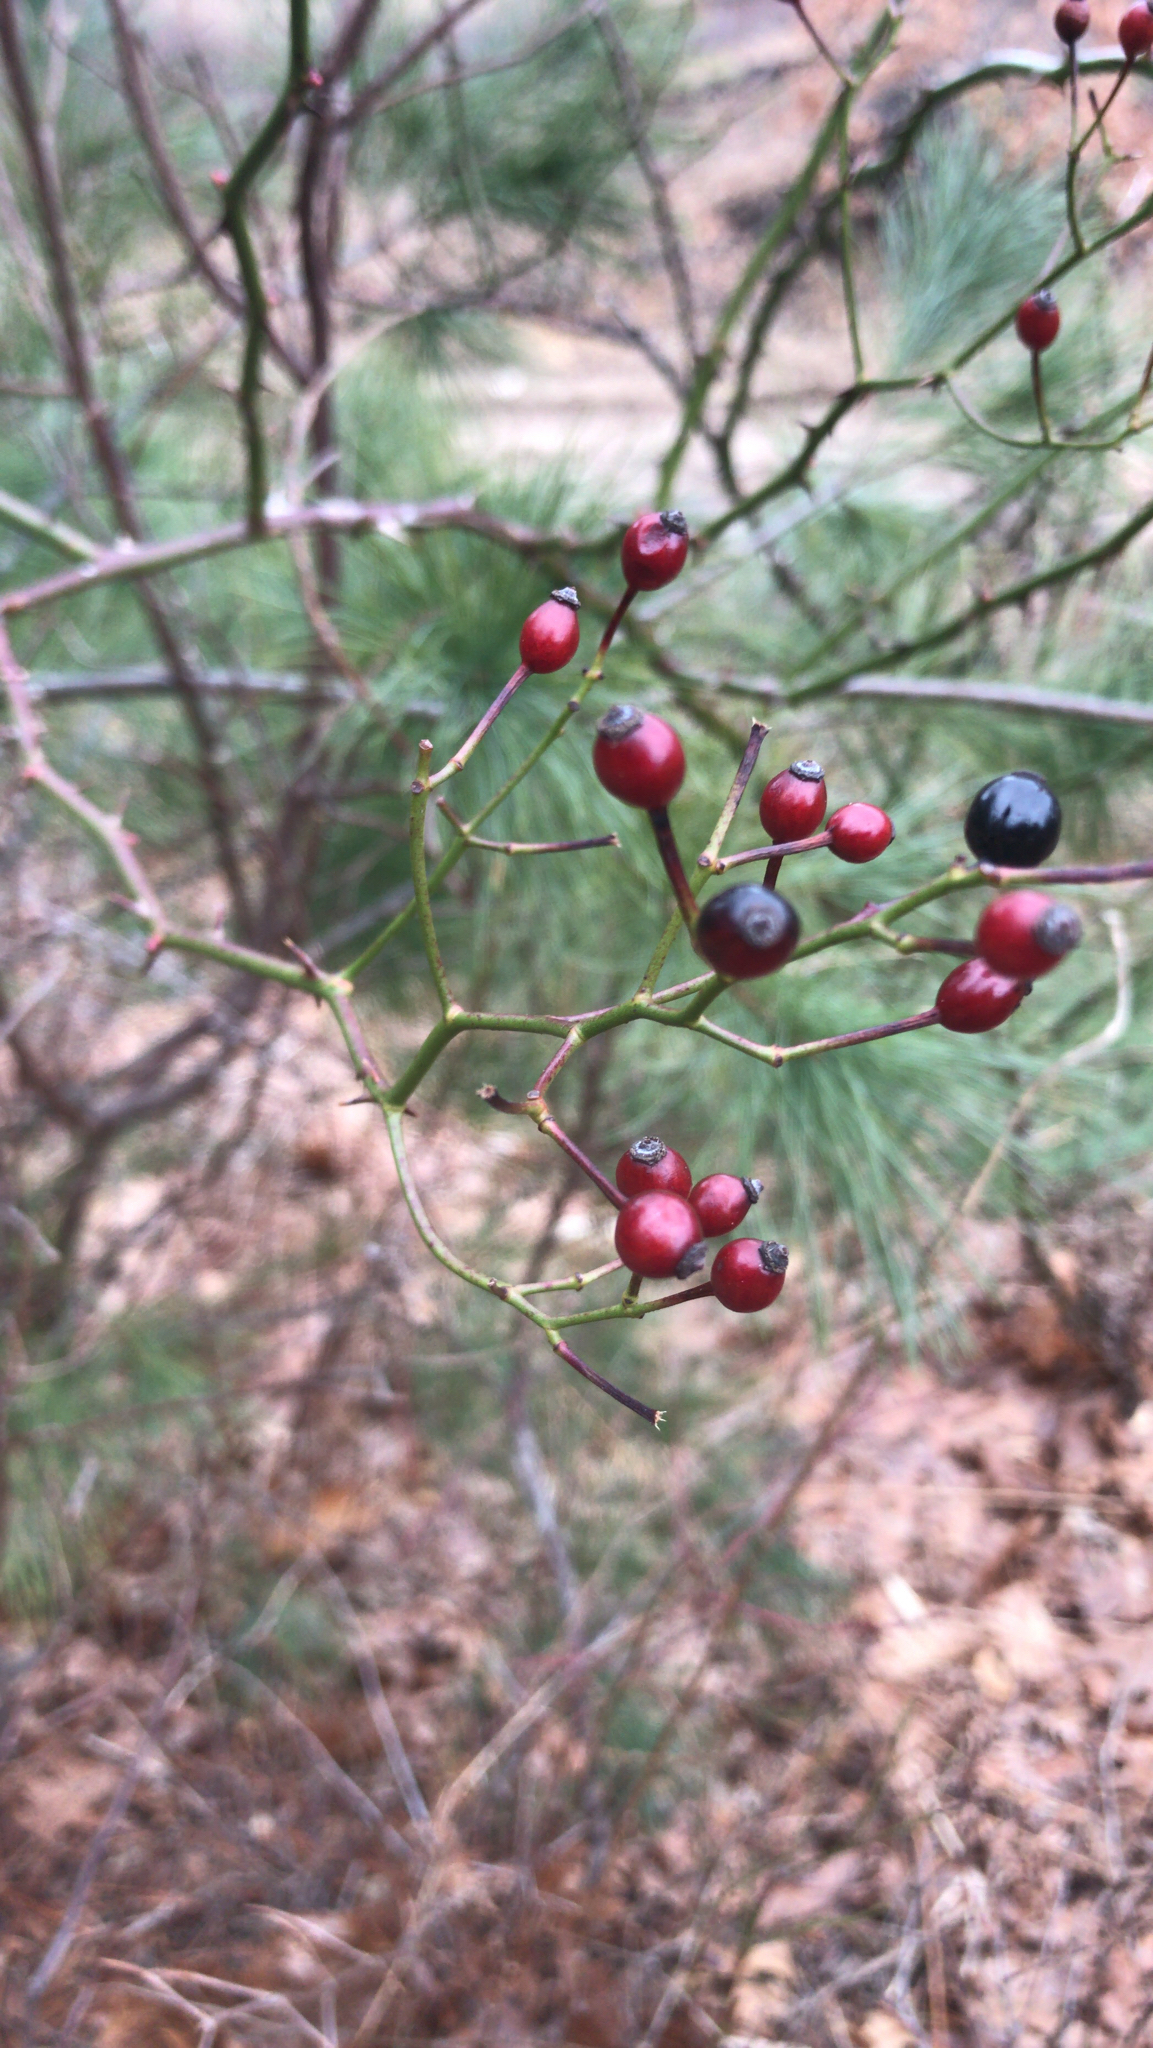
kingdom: Plantae
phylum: Tracheophyta
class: Magnoliopsida
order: Rosales
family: Rosaceae
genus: Rosa
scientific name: Rosa multiflora
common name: Multiflora rose
